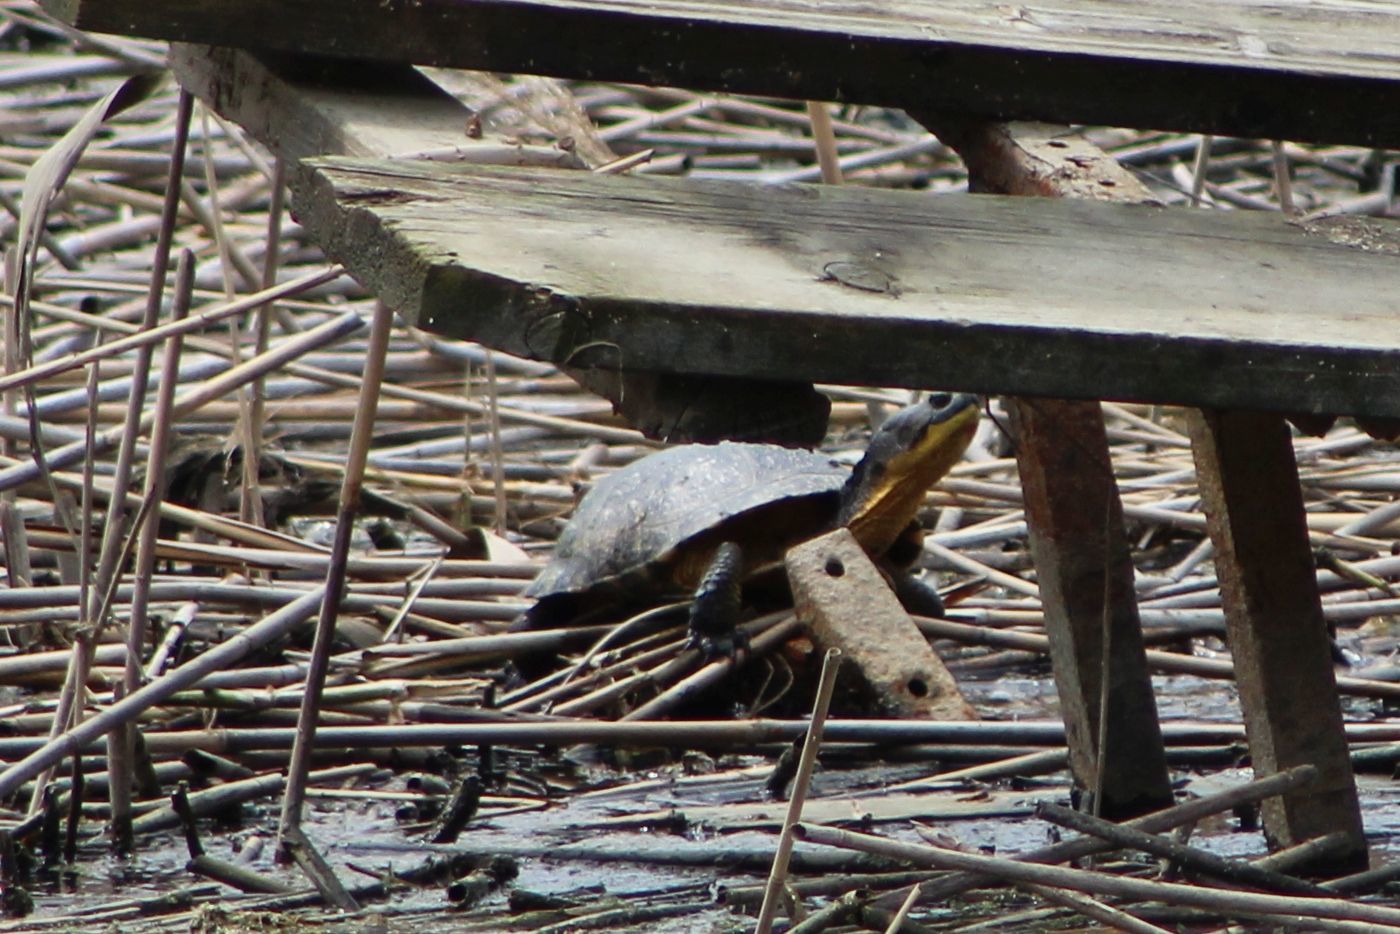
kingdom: Animalia
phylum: Chordata
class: Testudines
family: Emydidae
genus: Emys
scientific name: Emys blandingii
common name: Blanding's turtle
